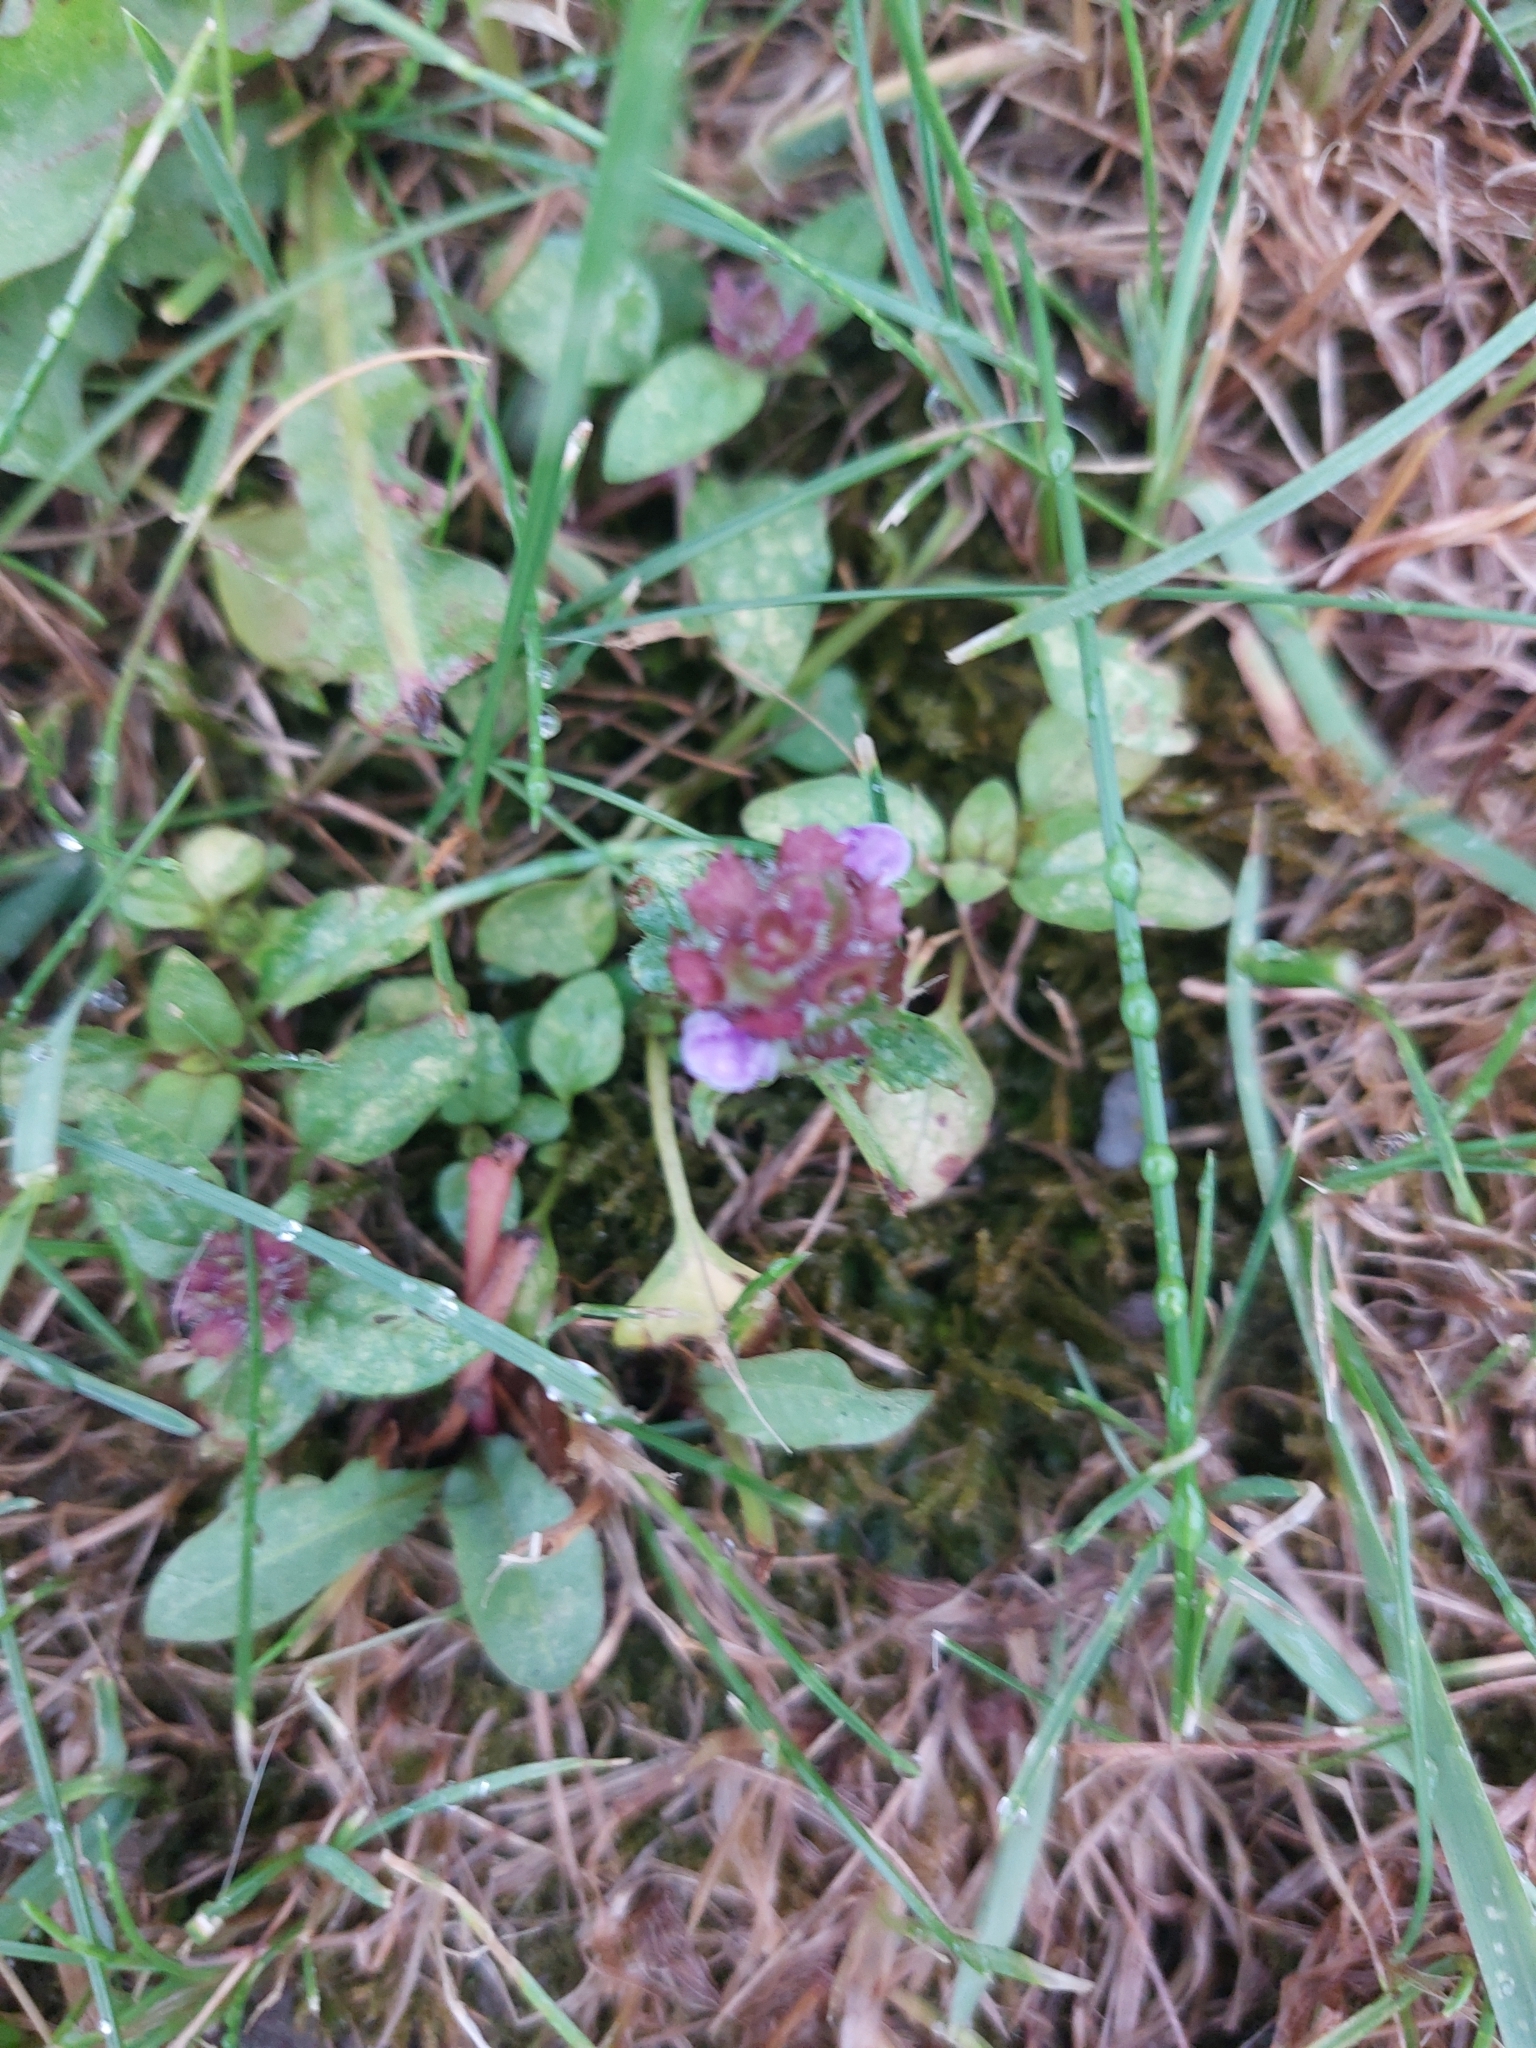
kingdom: Plantae
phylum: Tracheophyta
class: Magnoliopsida
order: Lamiales
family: Lamiaceae
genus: Prunella
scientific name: Prunella vulgaris
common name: Heal-all
